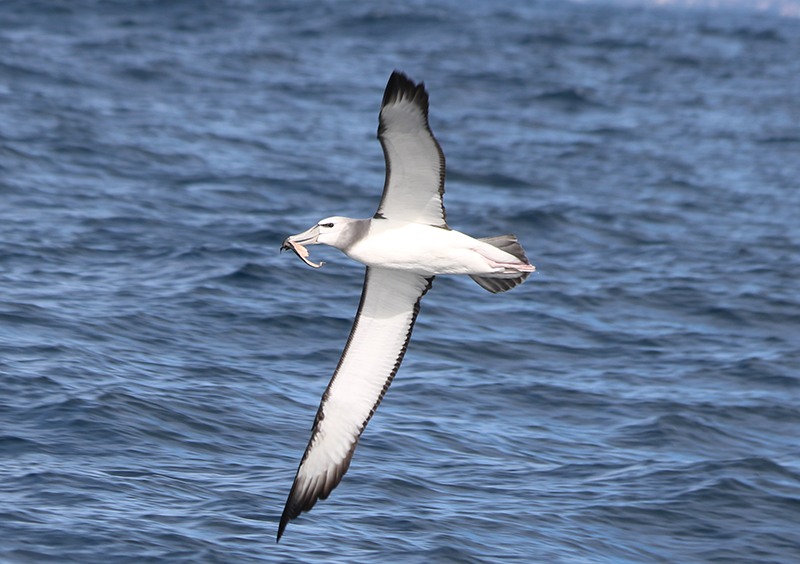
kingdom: Animalia
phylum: Chordata
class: Aves
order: Procellariiformes
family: Diomedeidae
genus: Thalassarche
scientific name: Thalassarche cauta
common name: Shy albatross
